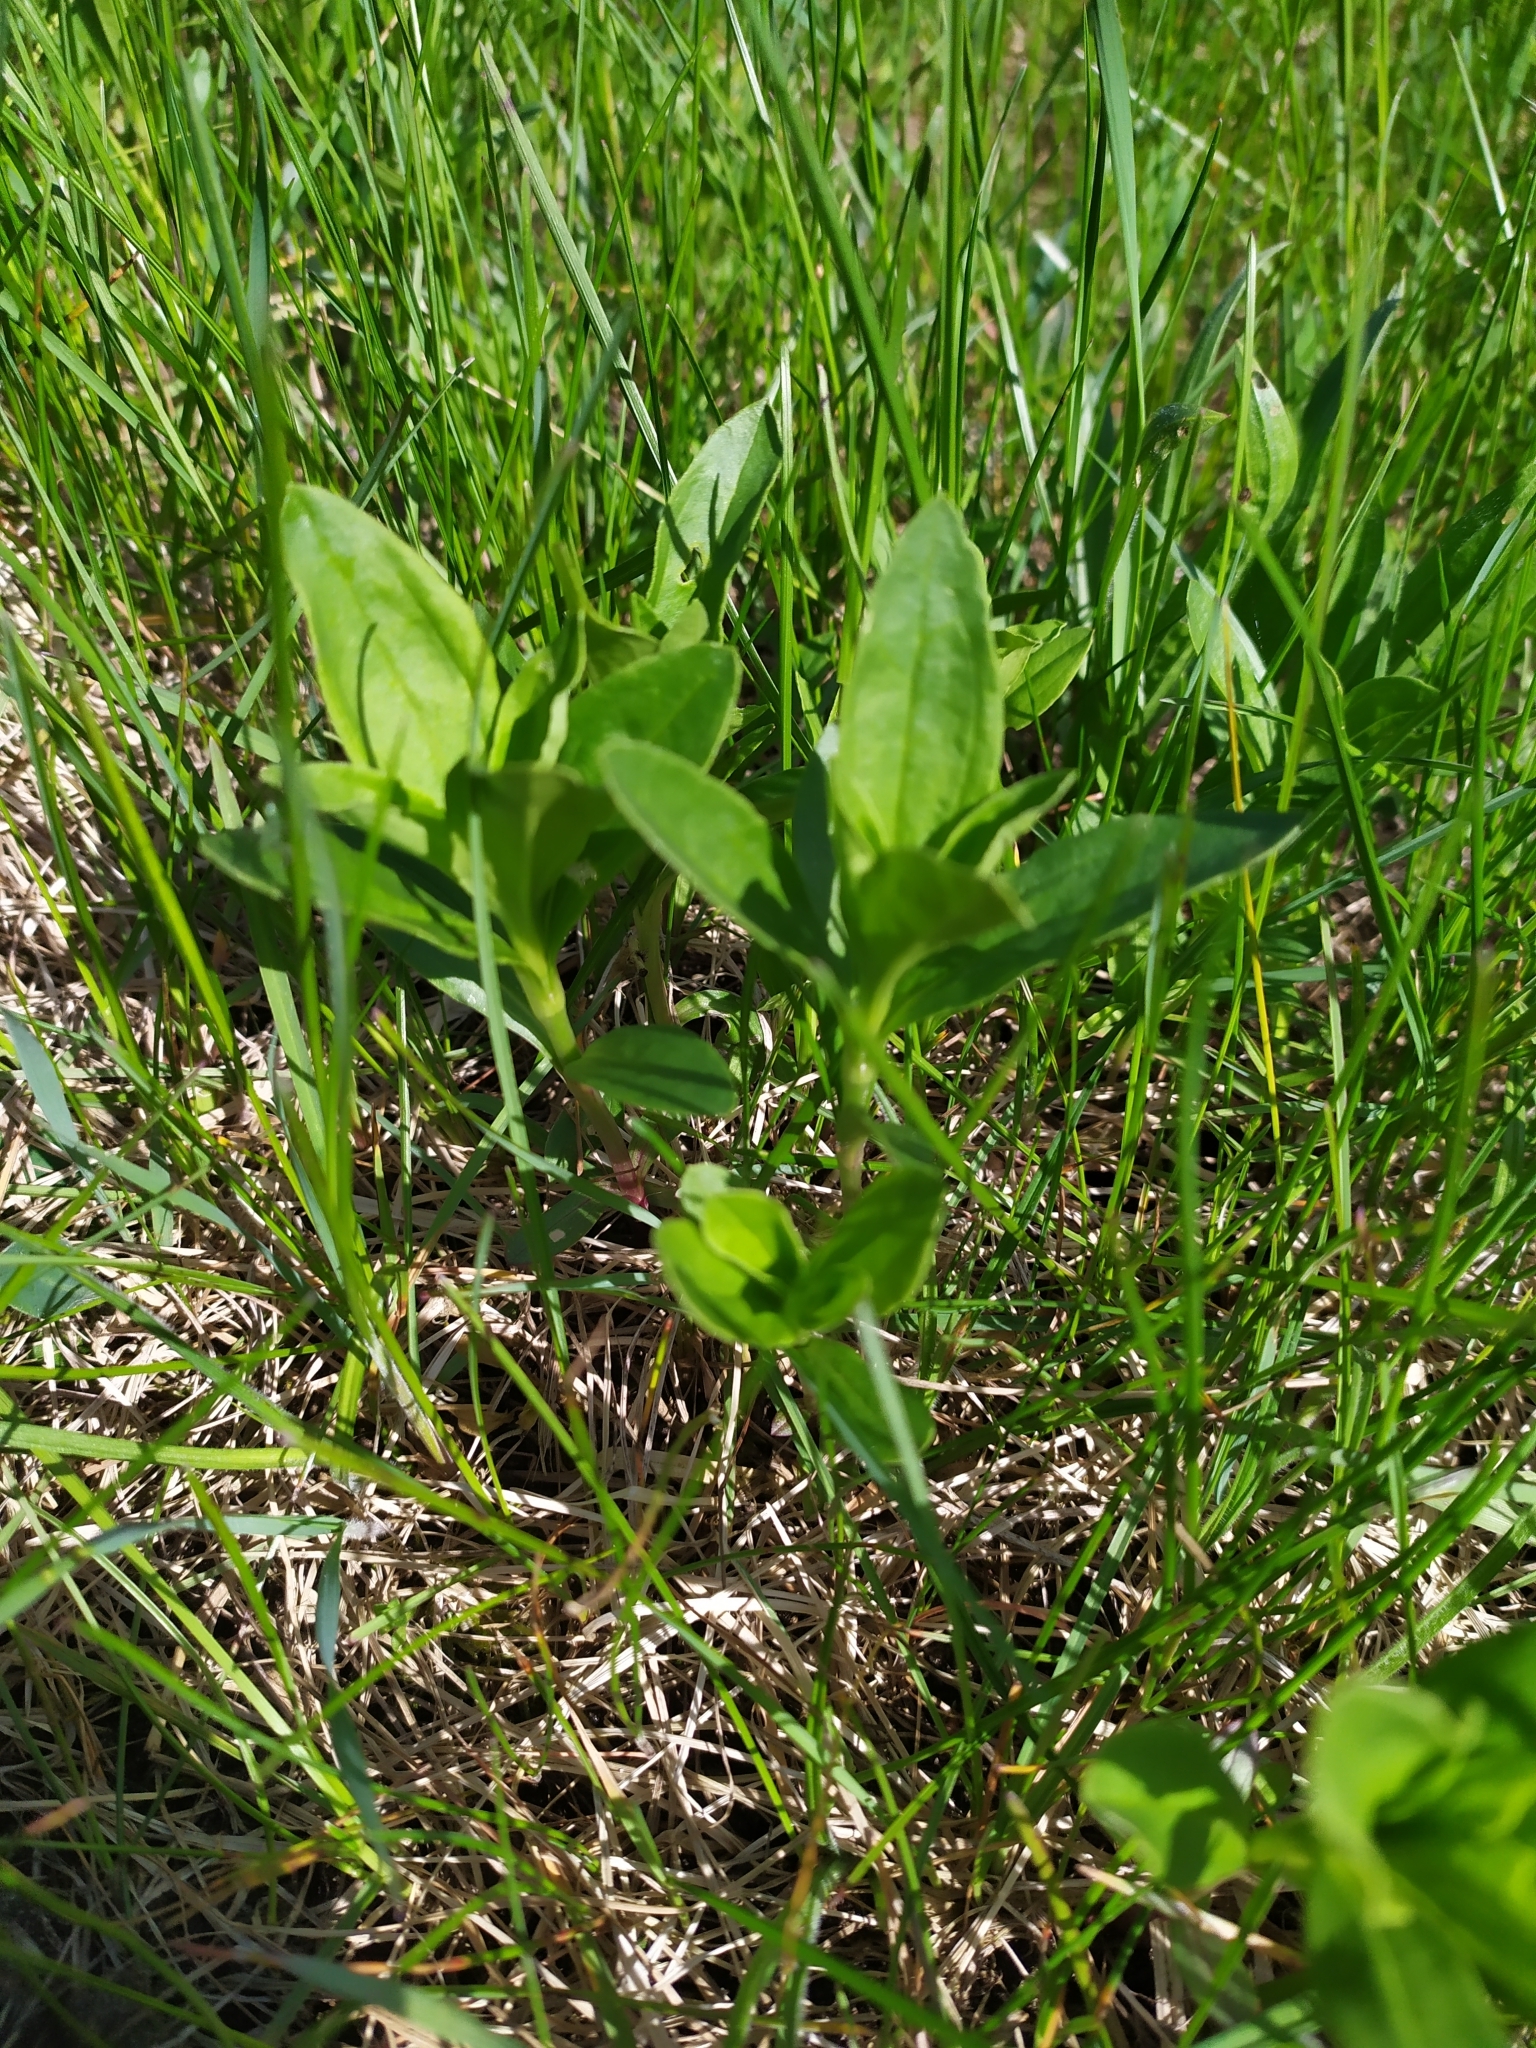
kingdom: Plantae
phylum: Tracheophyta
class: Magnoliopsida
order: Caryophyllales
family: Caryophyllaceae
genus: Saponaria
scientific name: Saponaria officinalis
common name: Soapwort
